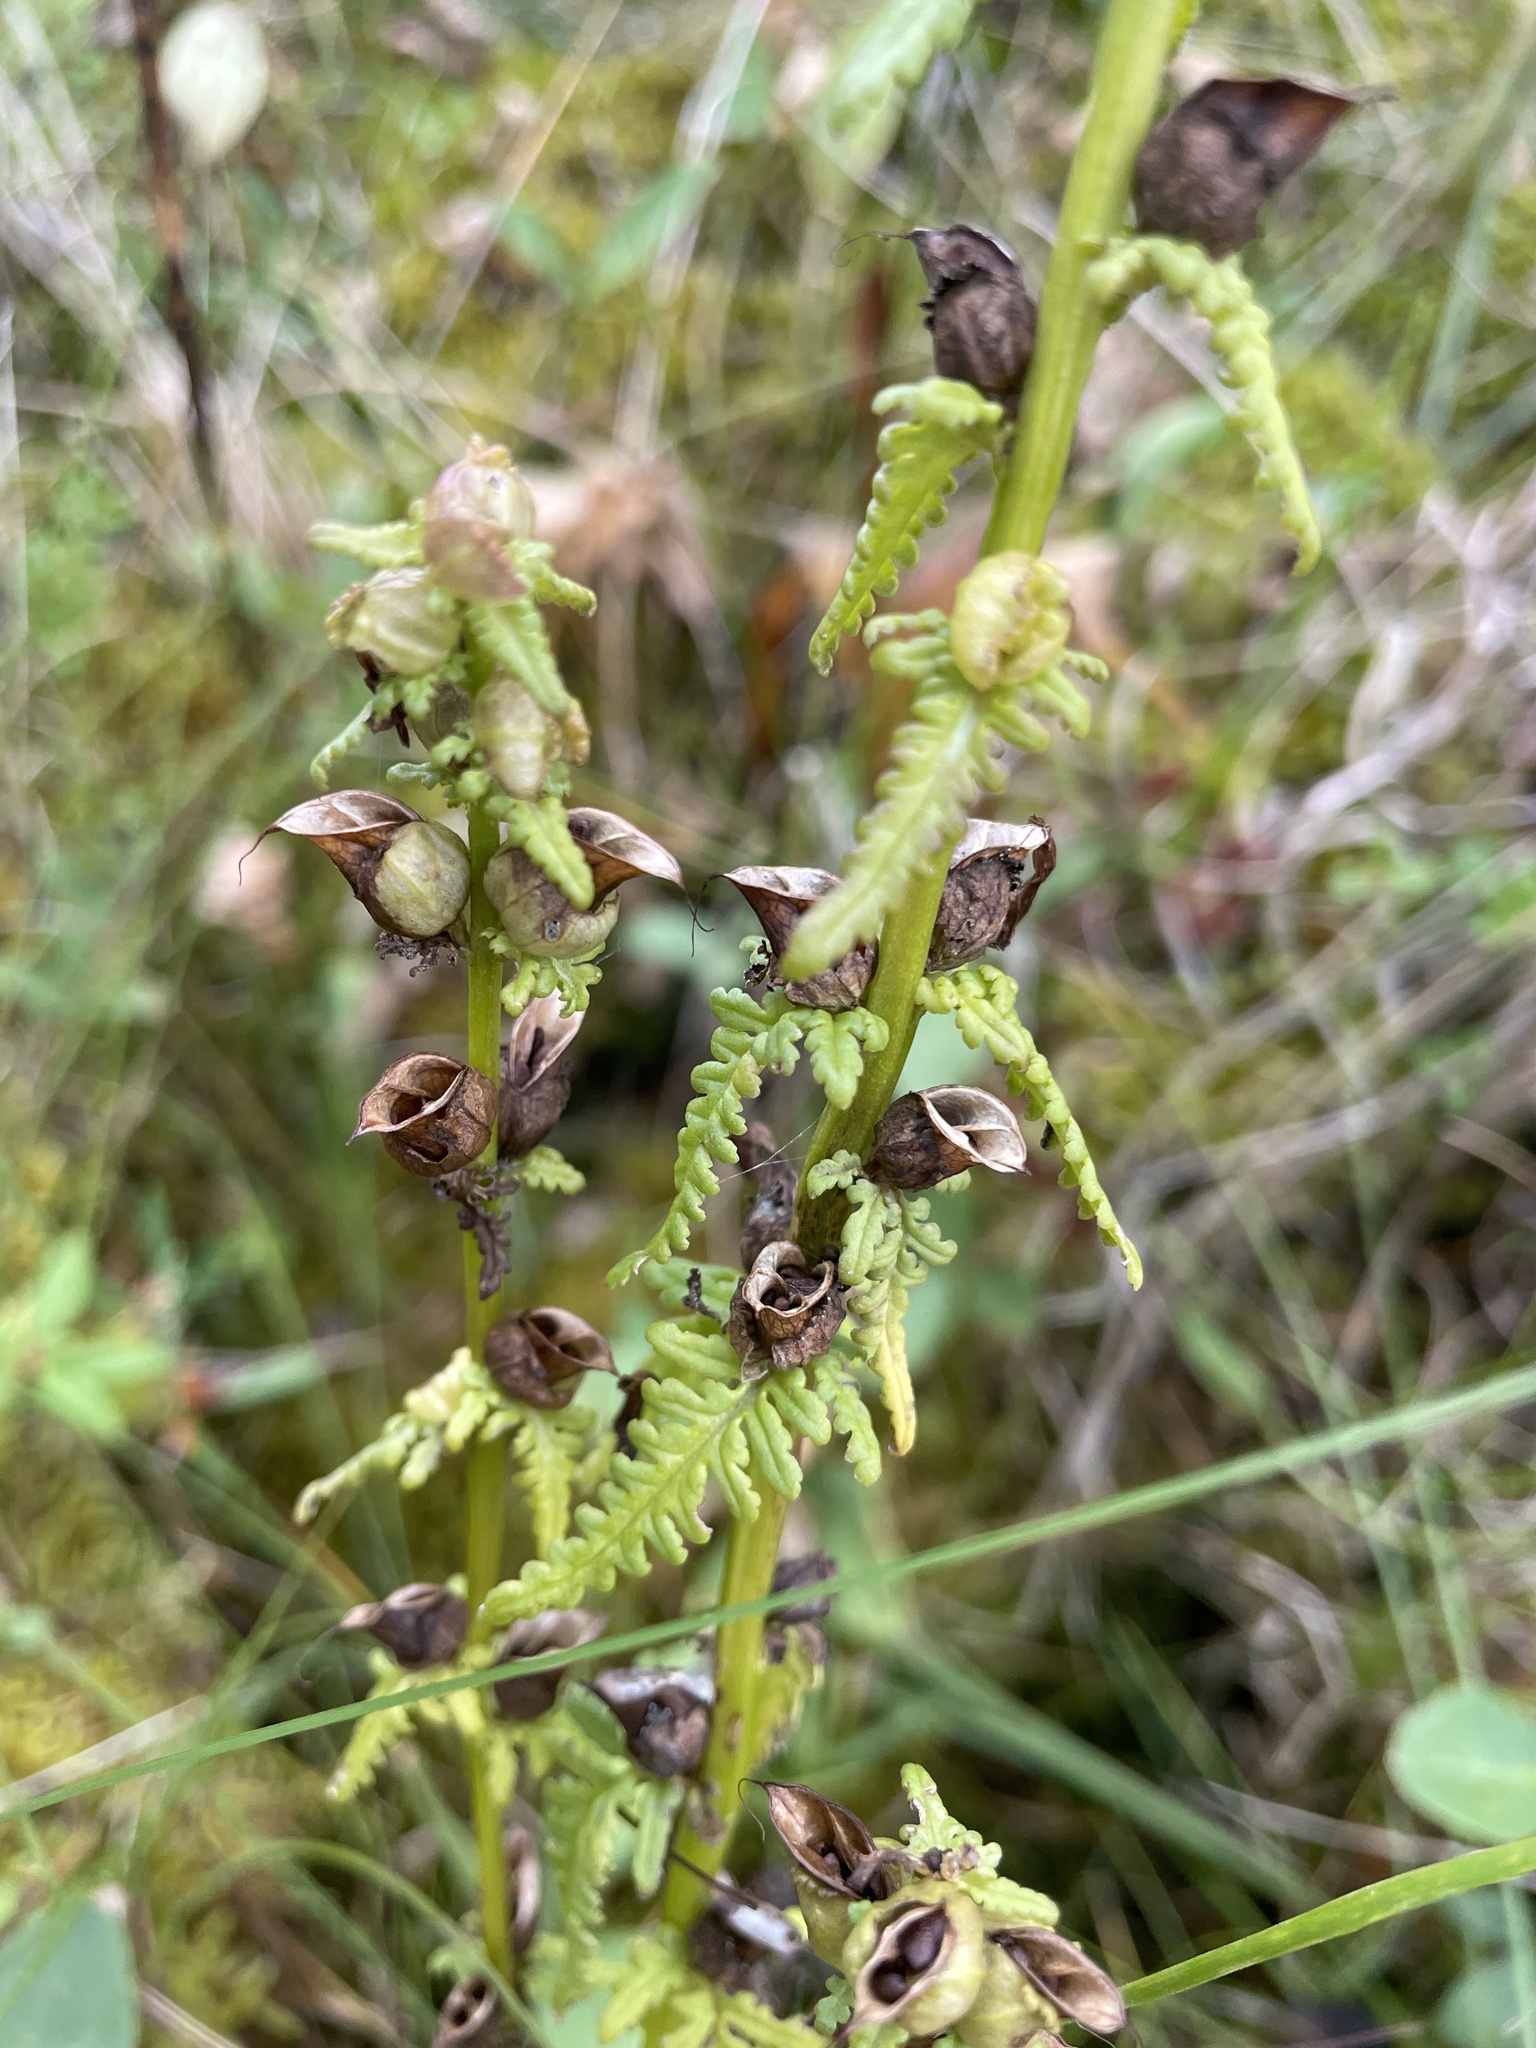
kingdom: Plantae
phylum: Tracheophyta
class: Magnoliopsida
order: Lamiales
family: Orobanchaceae
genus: Pedicularis
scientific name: Pedicularis parviflora
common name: Muskeg lousewort
